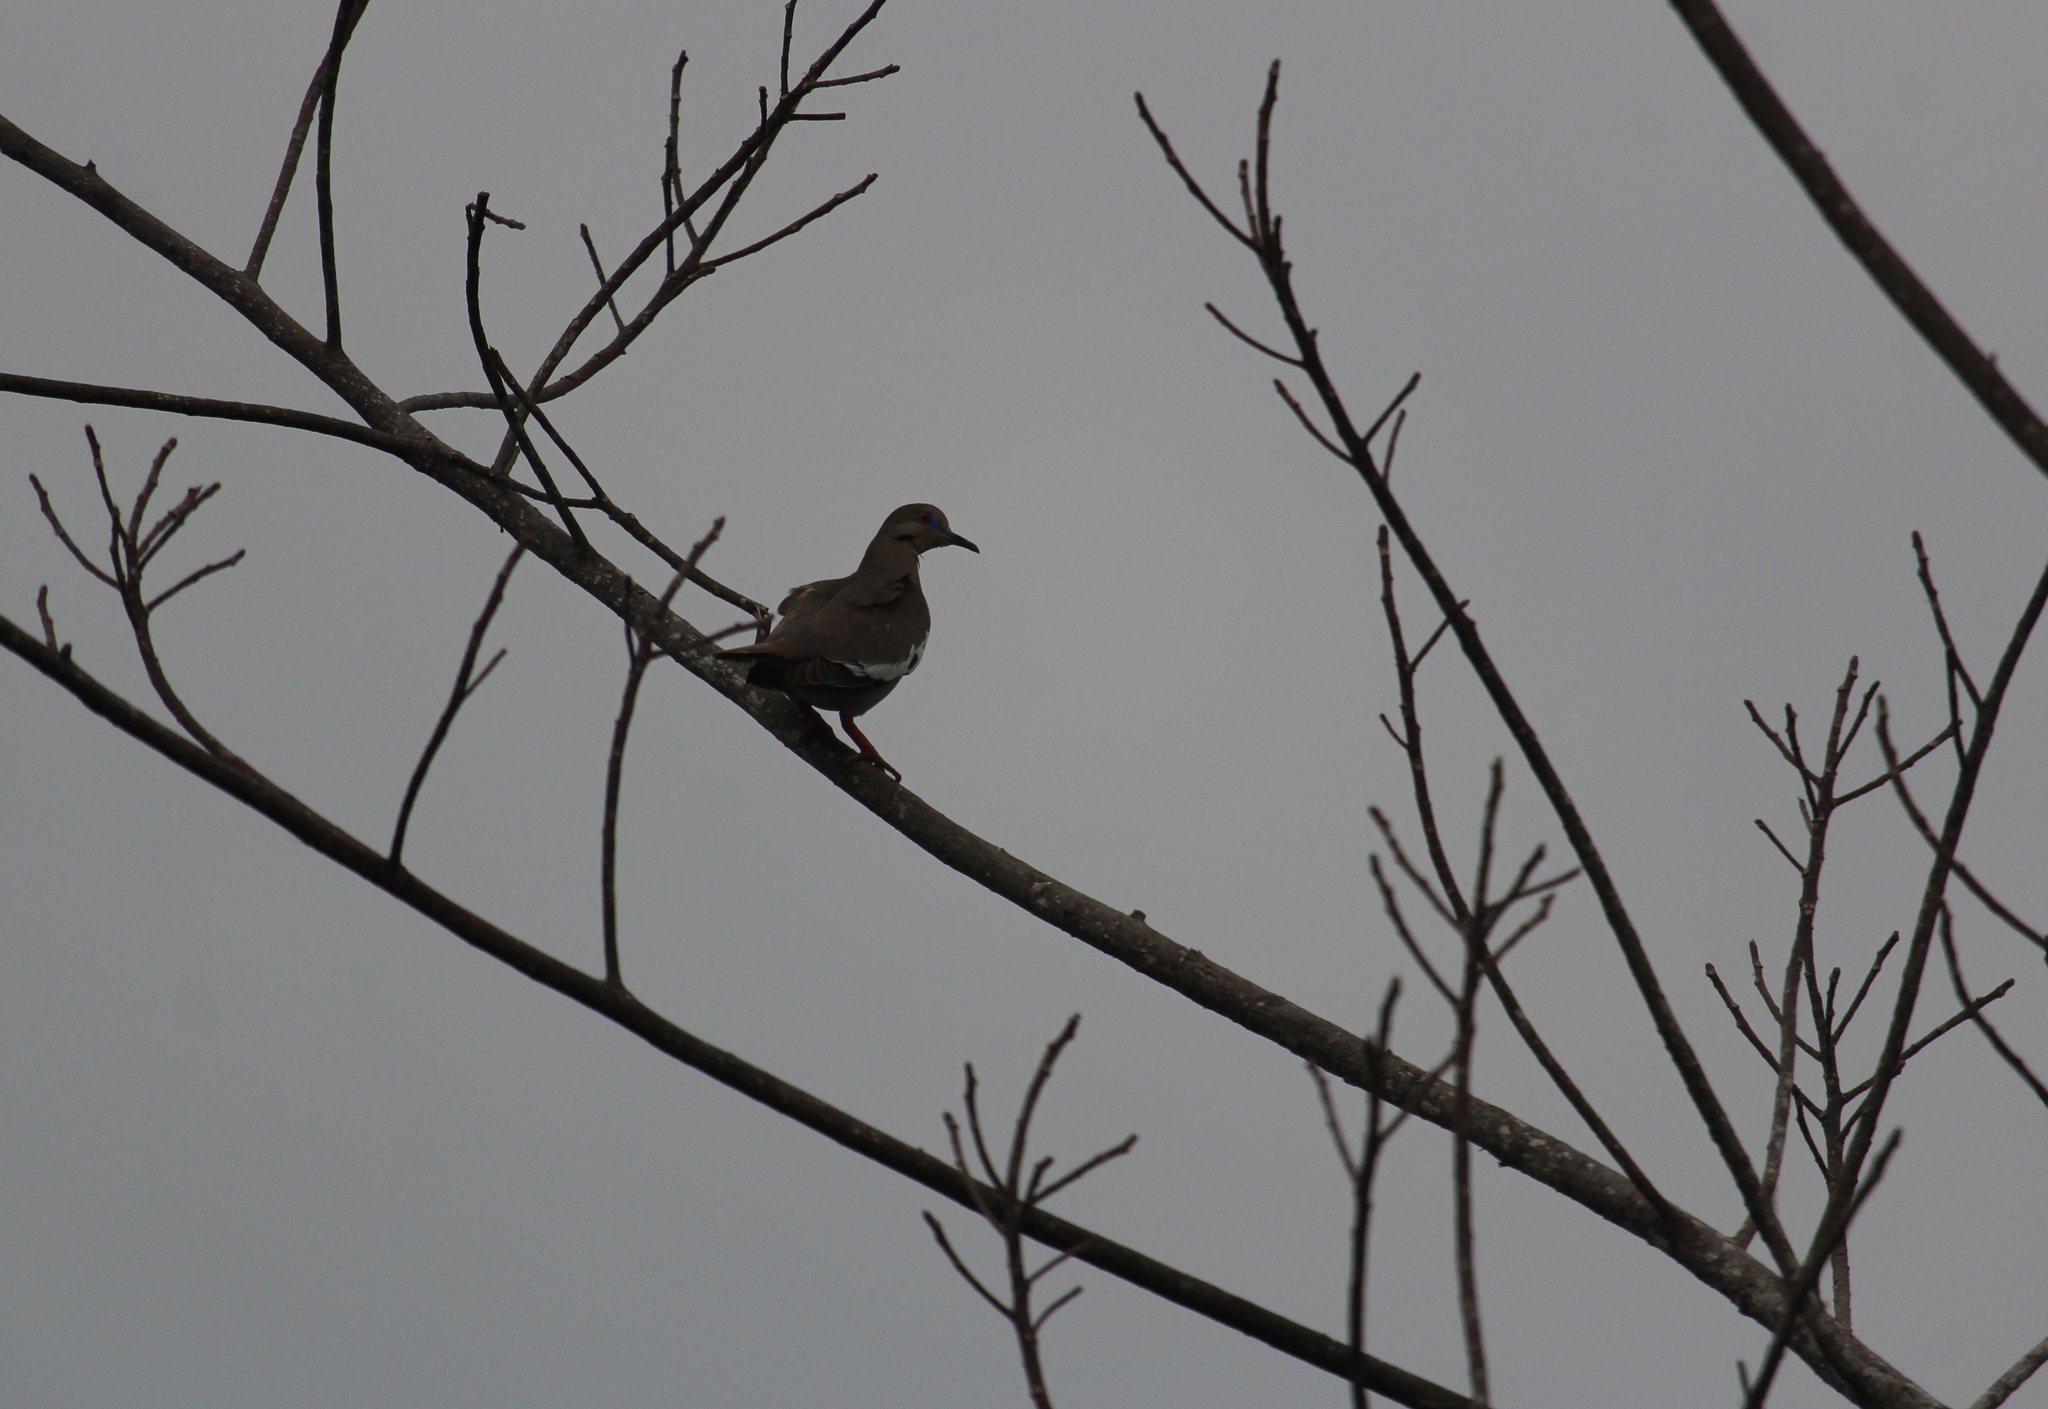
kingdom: Animalia
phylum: Chordata
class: Aves
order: Columbiformes
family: Columbidae
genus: Zenaida
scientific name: Zenaida asiatica
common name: White-winged dove
